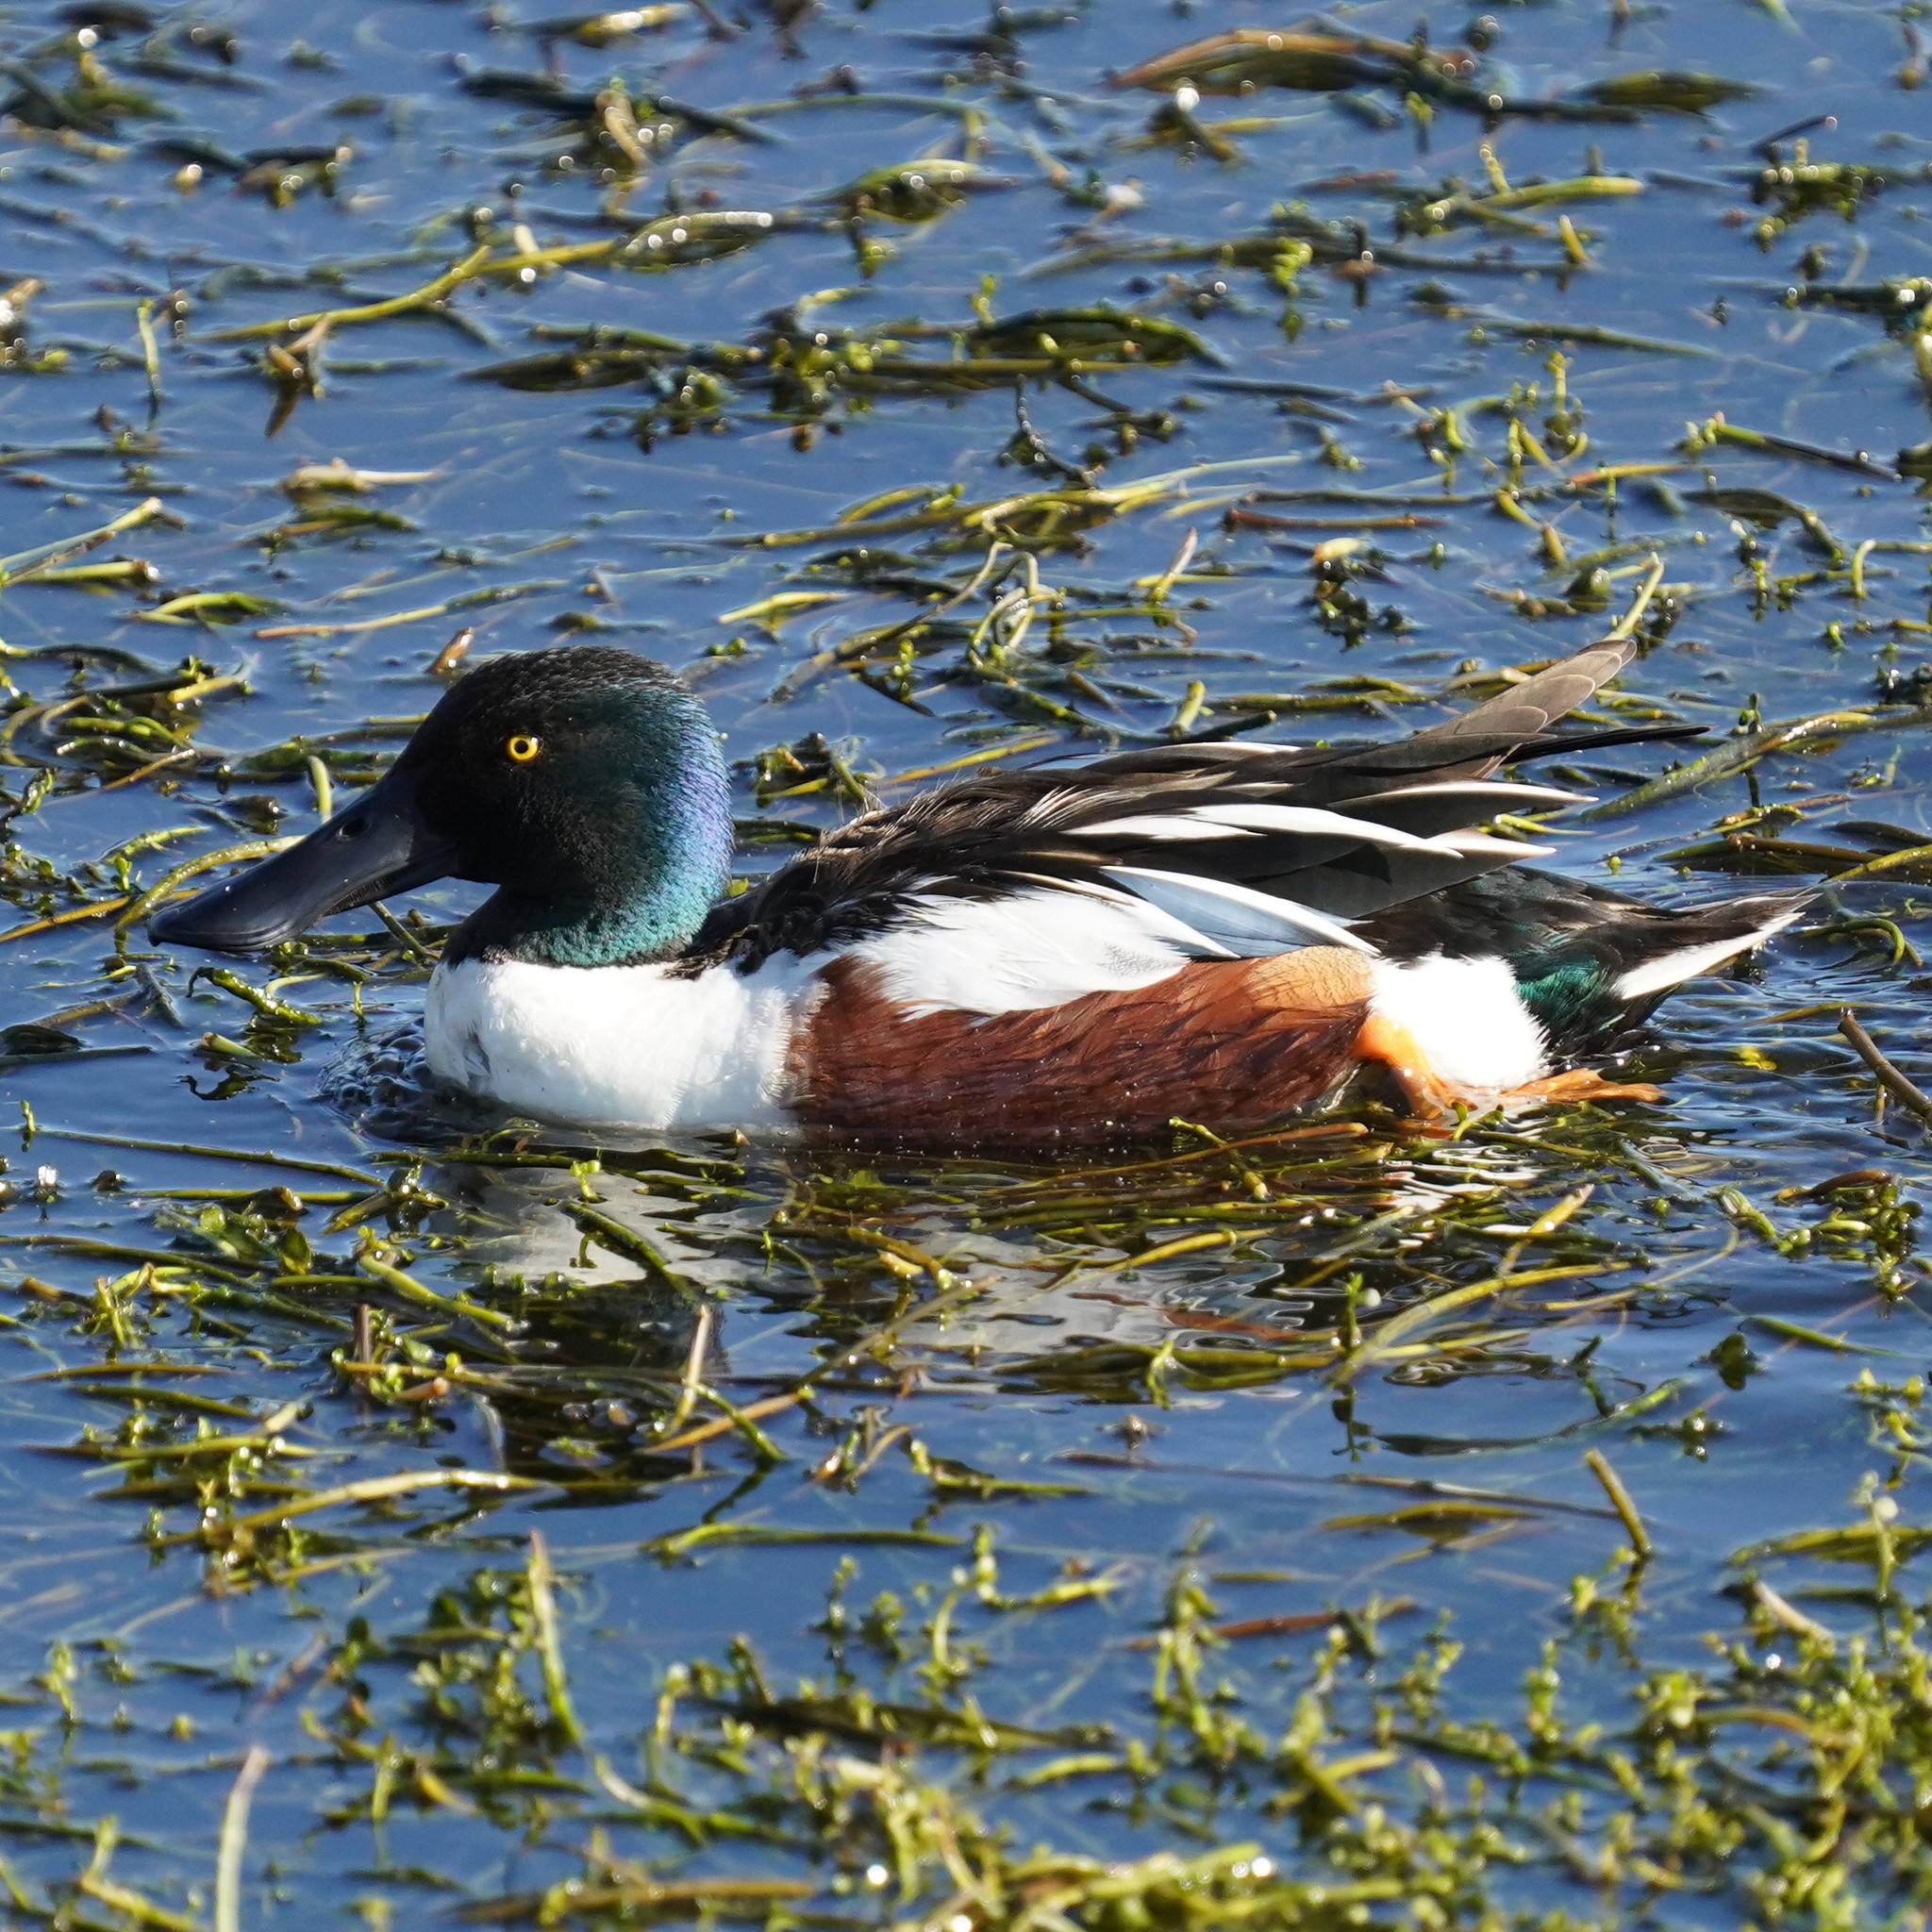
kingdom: Animalia
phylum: Chordata
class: Aves
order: Anseriformes
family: Anatidae
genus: Spatula
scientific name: Spatula clypeata
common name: Northern shoveler
